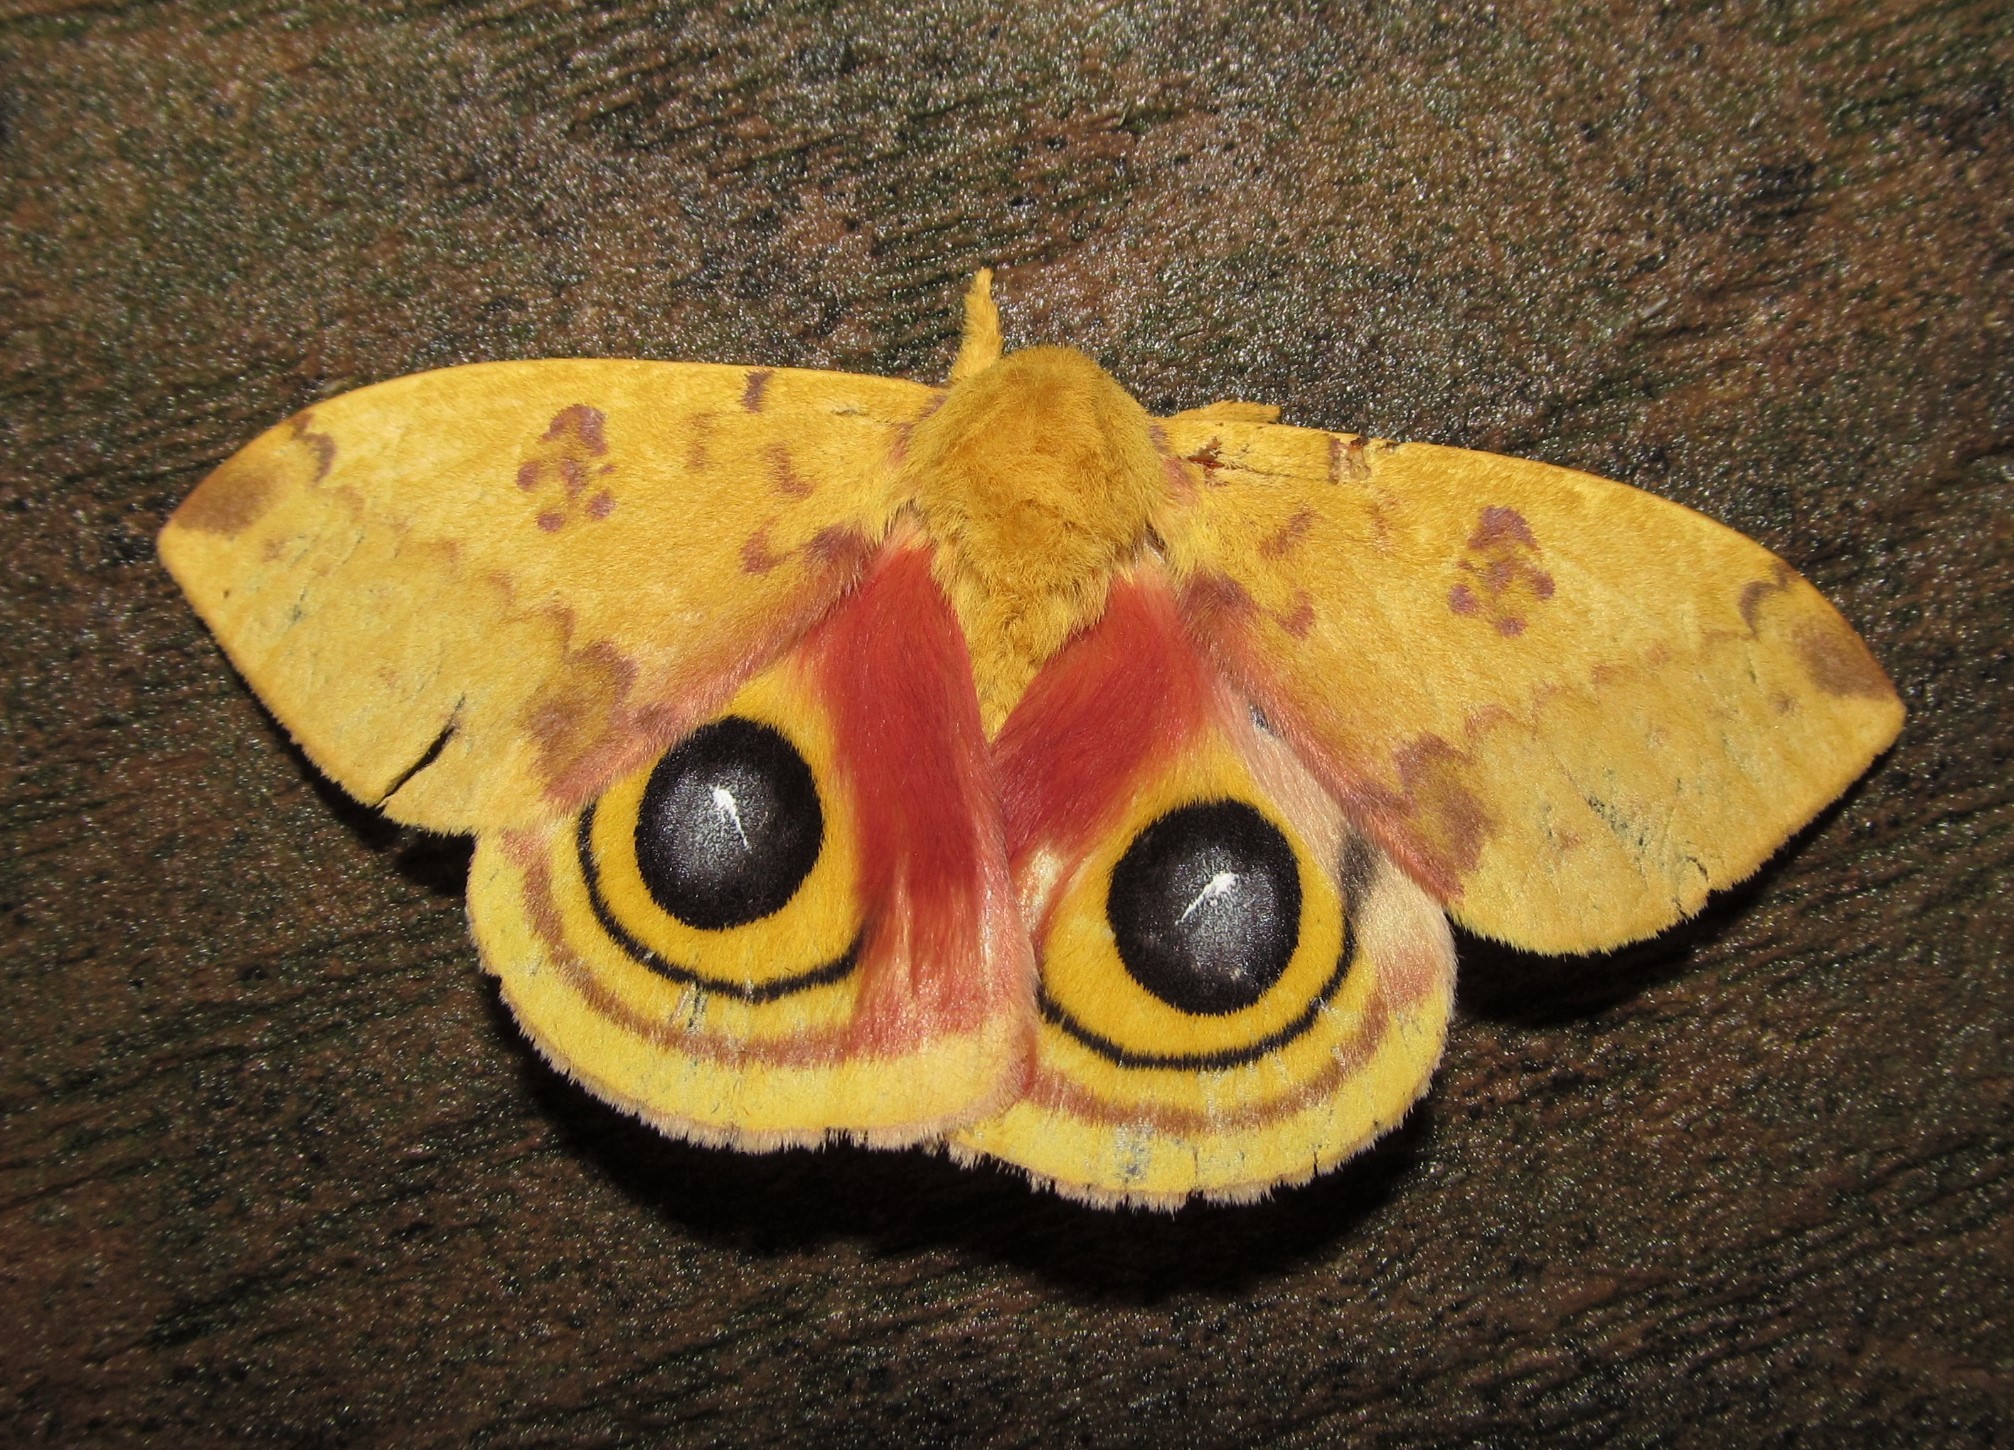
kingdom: Animalia
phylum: Arthropoda
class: Insecta
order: Lepidoptera
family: Saturniidae
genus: Automeris
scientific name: Automeris io
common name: Io moth
